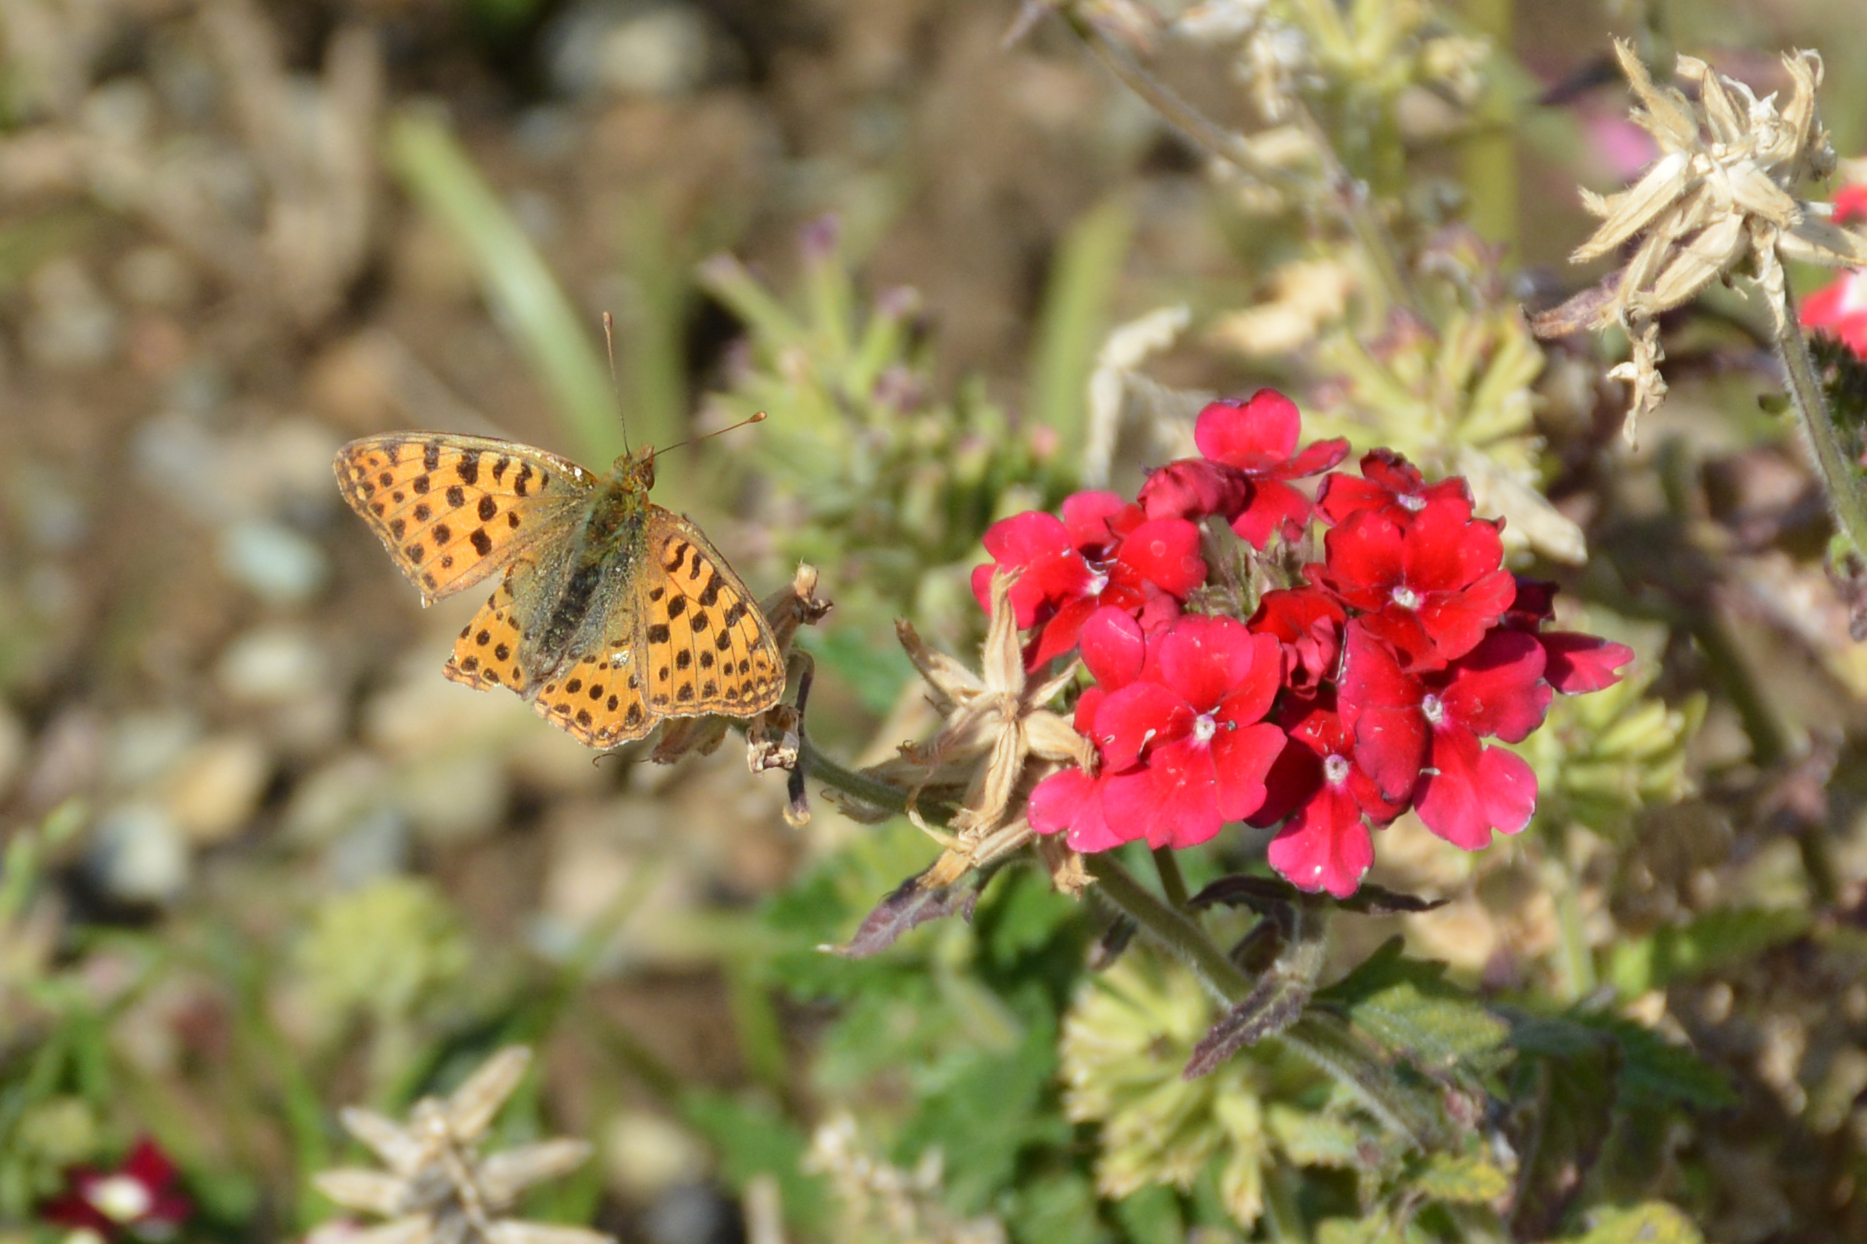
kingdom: Animalia
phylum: Arthropoda
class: Insecta
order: Lepidoptera
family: Nymphalidae
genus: Issoria
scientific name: Issoria lathonia
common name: Queen of spain fritillary
